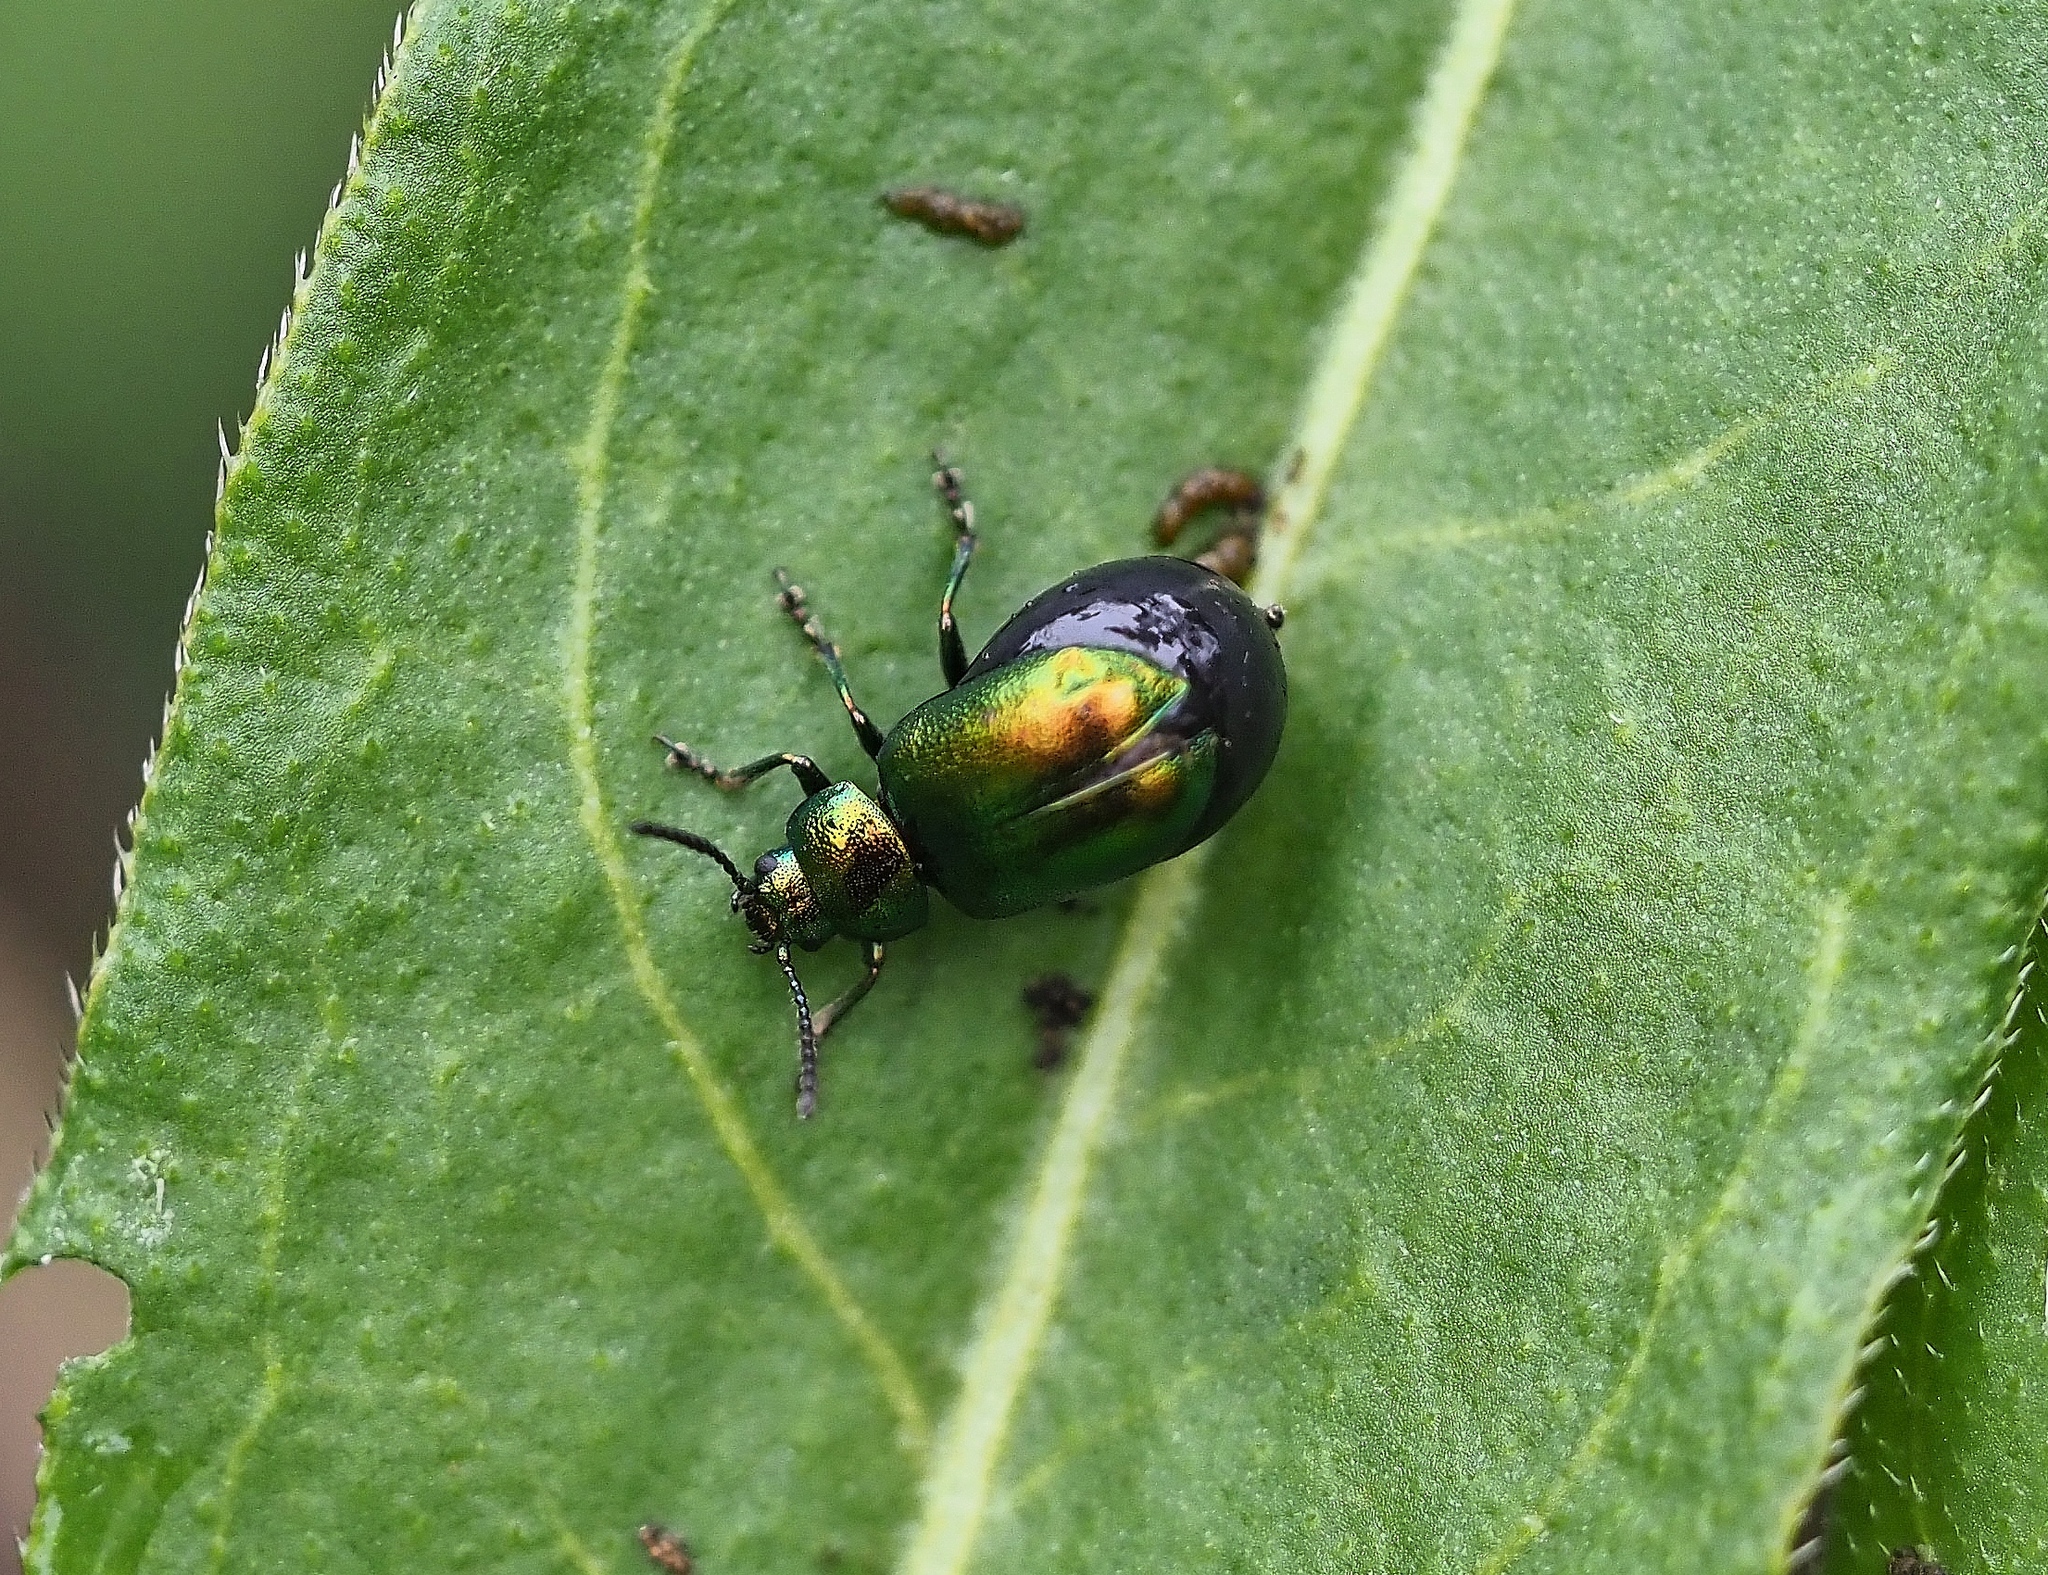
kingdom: Animalia
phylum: Arthropoda
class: Insecta
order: Coleoptera
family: Chrysomelidae
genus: Gastrophysa
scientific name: Gastrophysa viridula
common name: Green dock beetle
